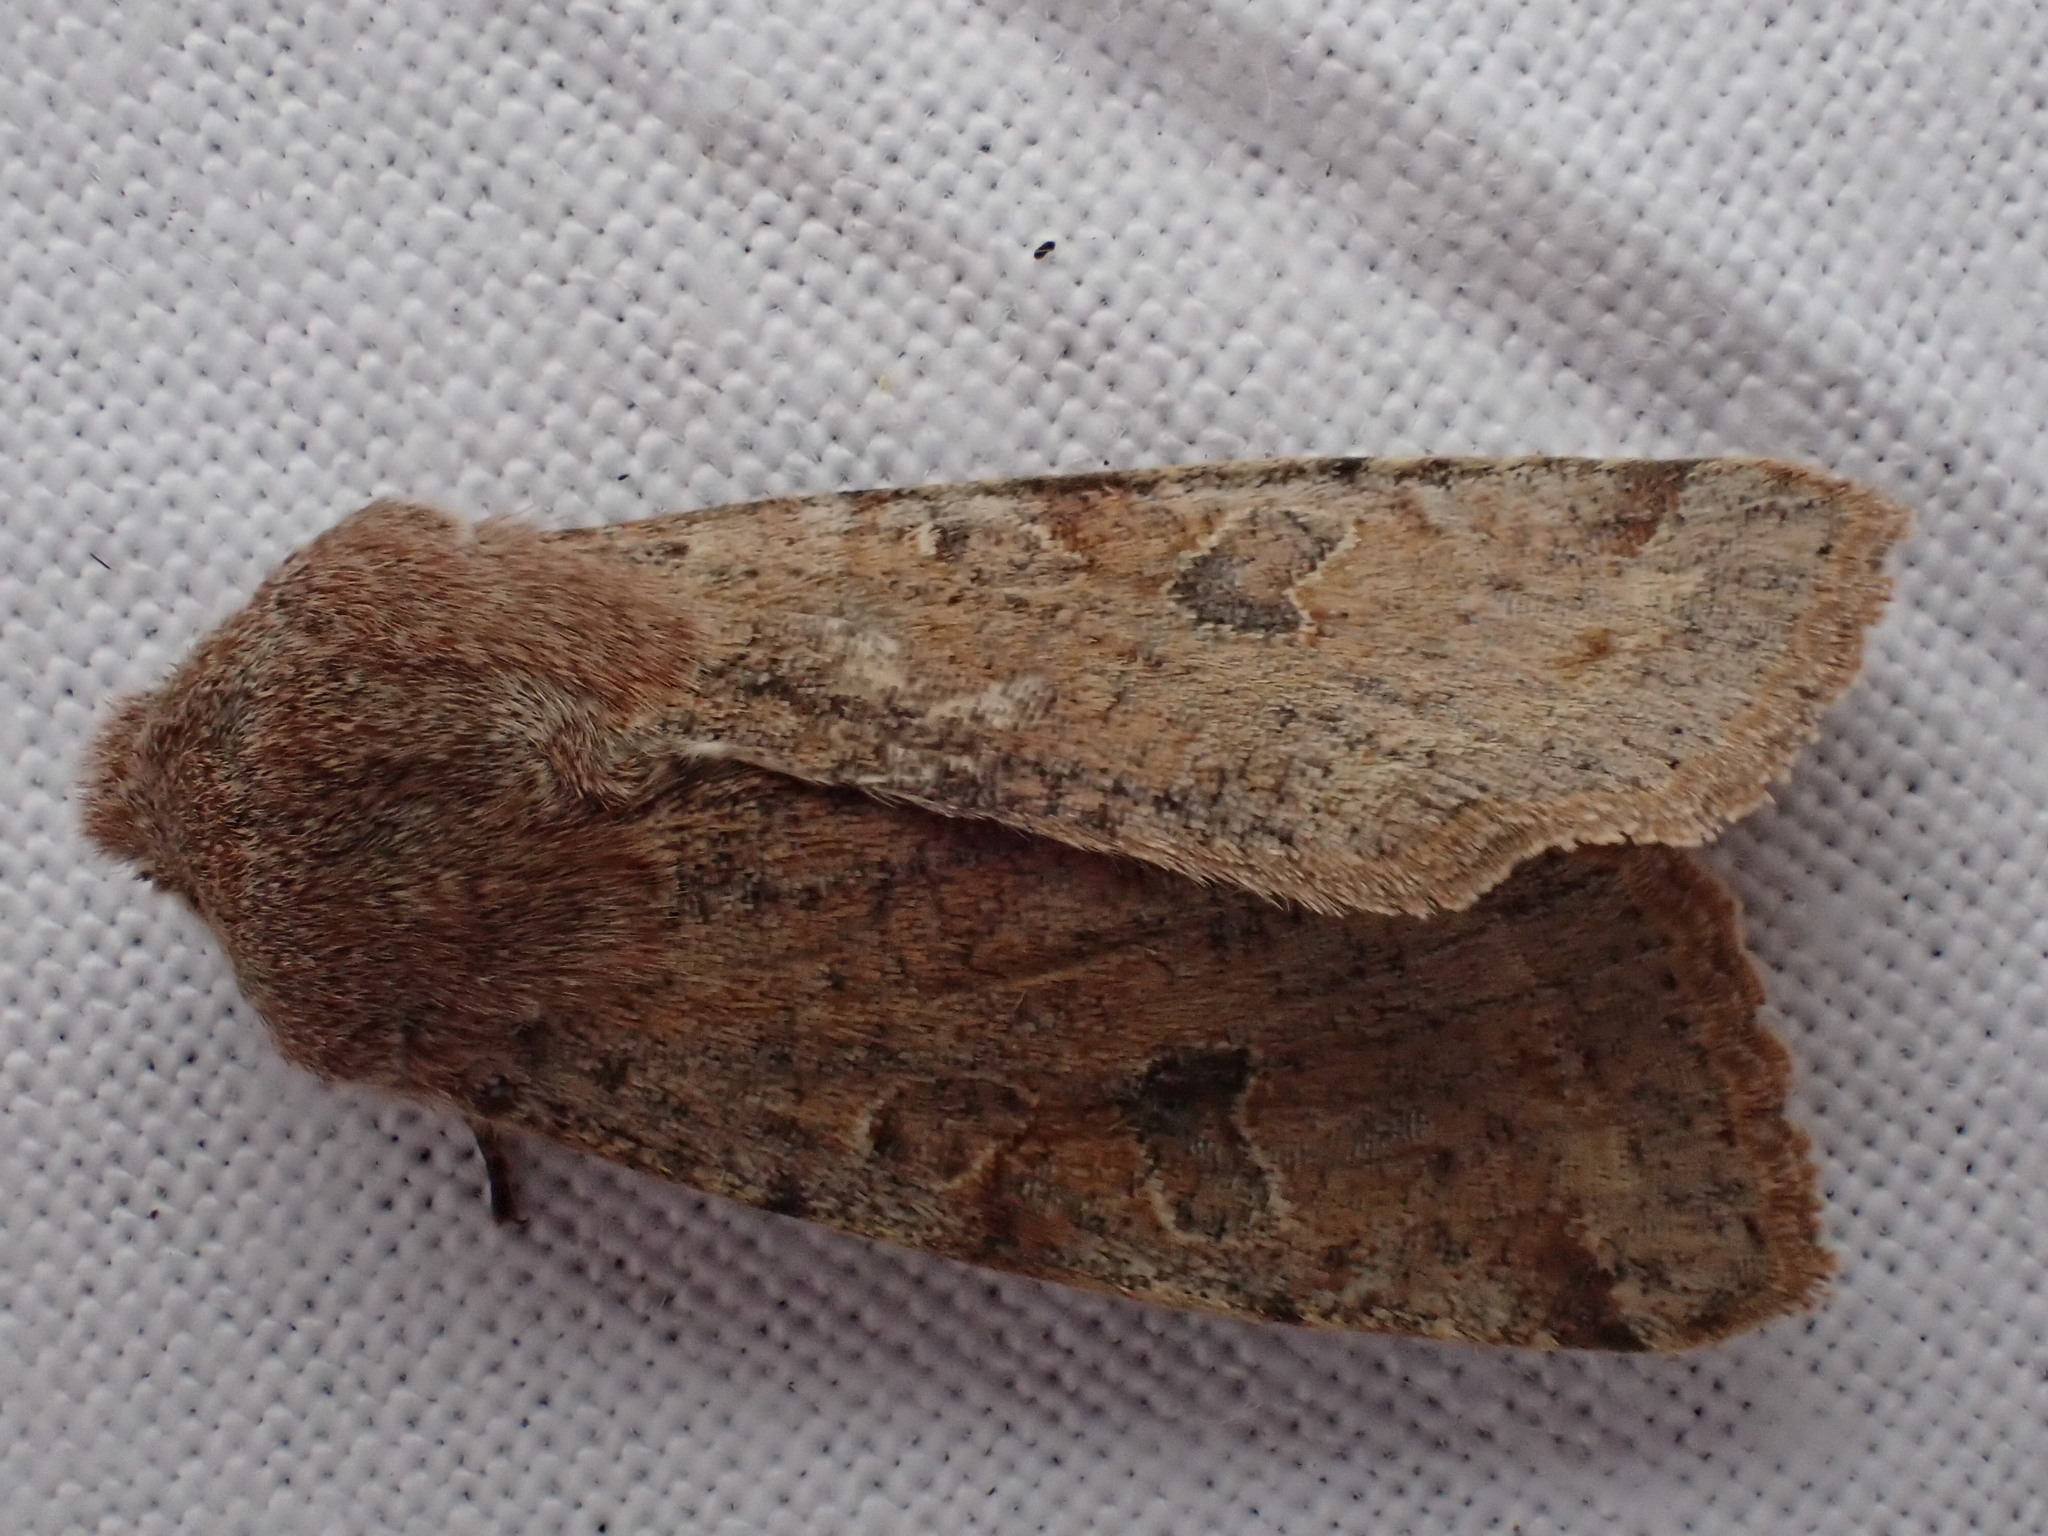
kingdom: Animalia
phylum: Arthropoda
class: Insecta
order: Lepidoptera
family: Noctuidae
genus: Orthosia
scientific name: Orthosia incerta
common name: Clouded drab
